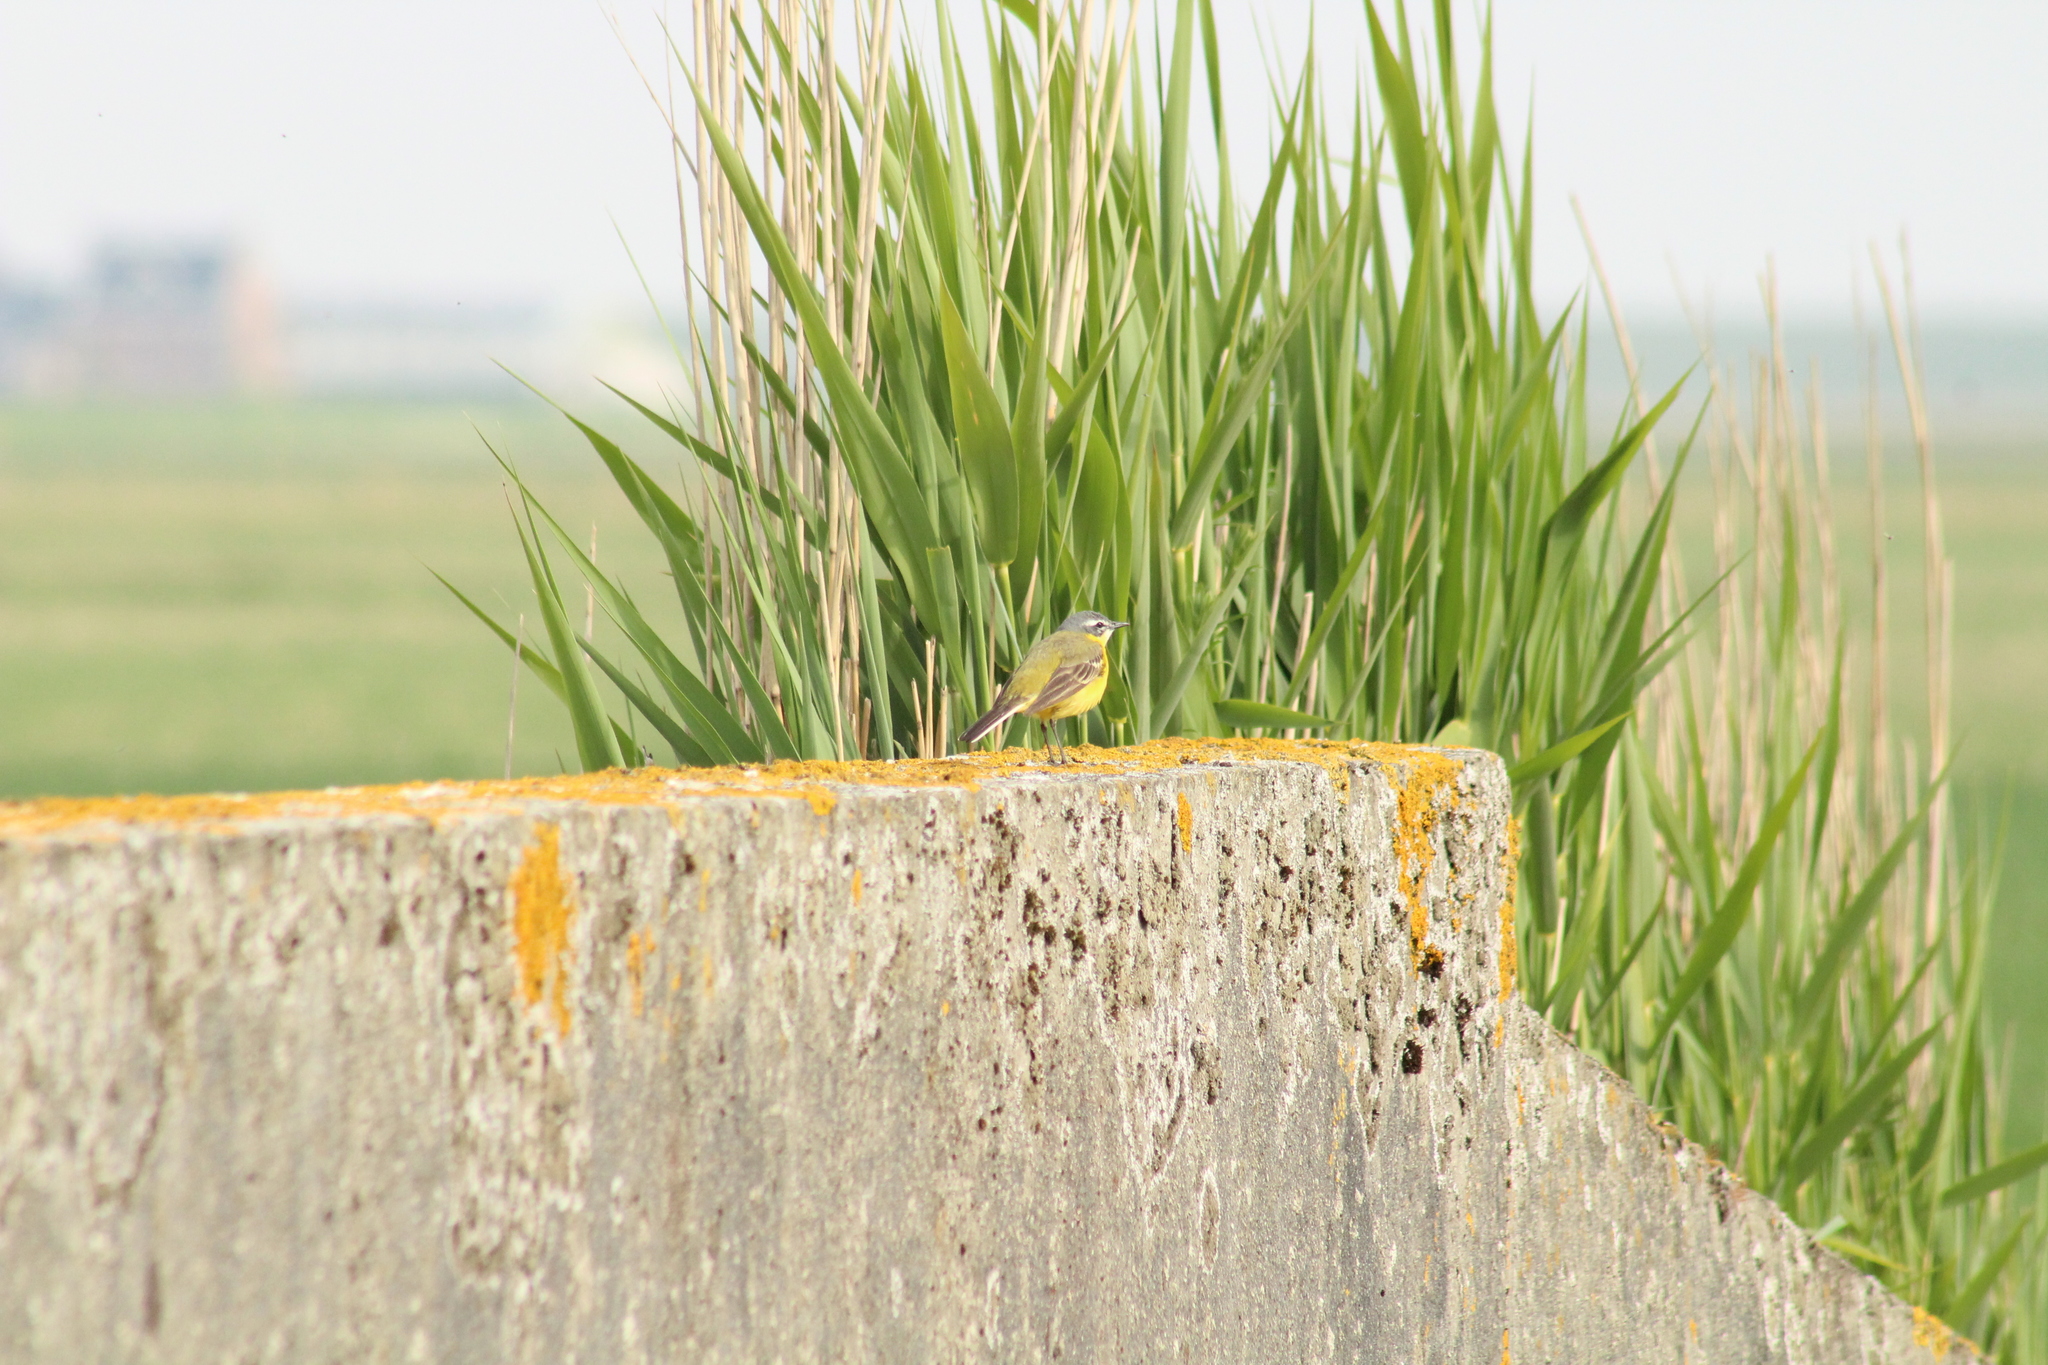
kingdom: Animalia
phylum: Chordata
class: Aves
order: Passeriformes
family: Motacillidae
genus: Motacilla
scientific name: Motacilla flava
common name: Western yellow wagtail
